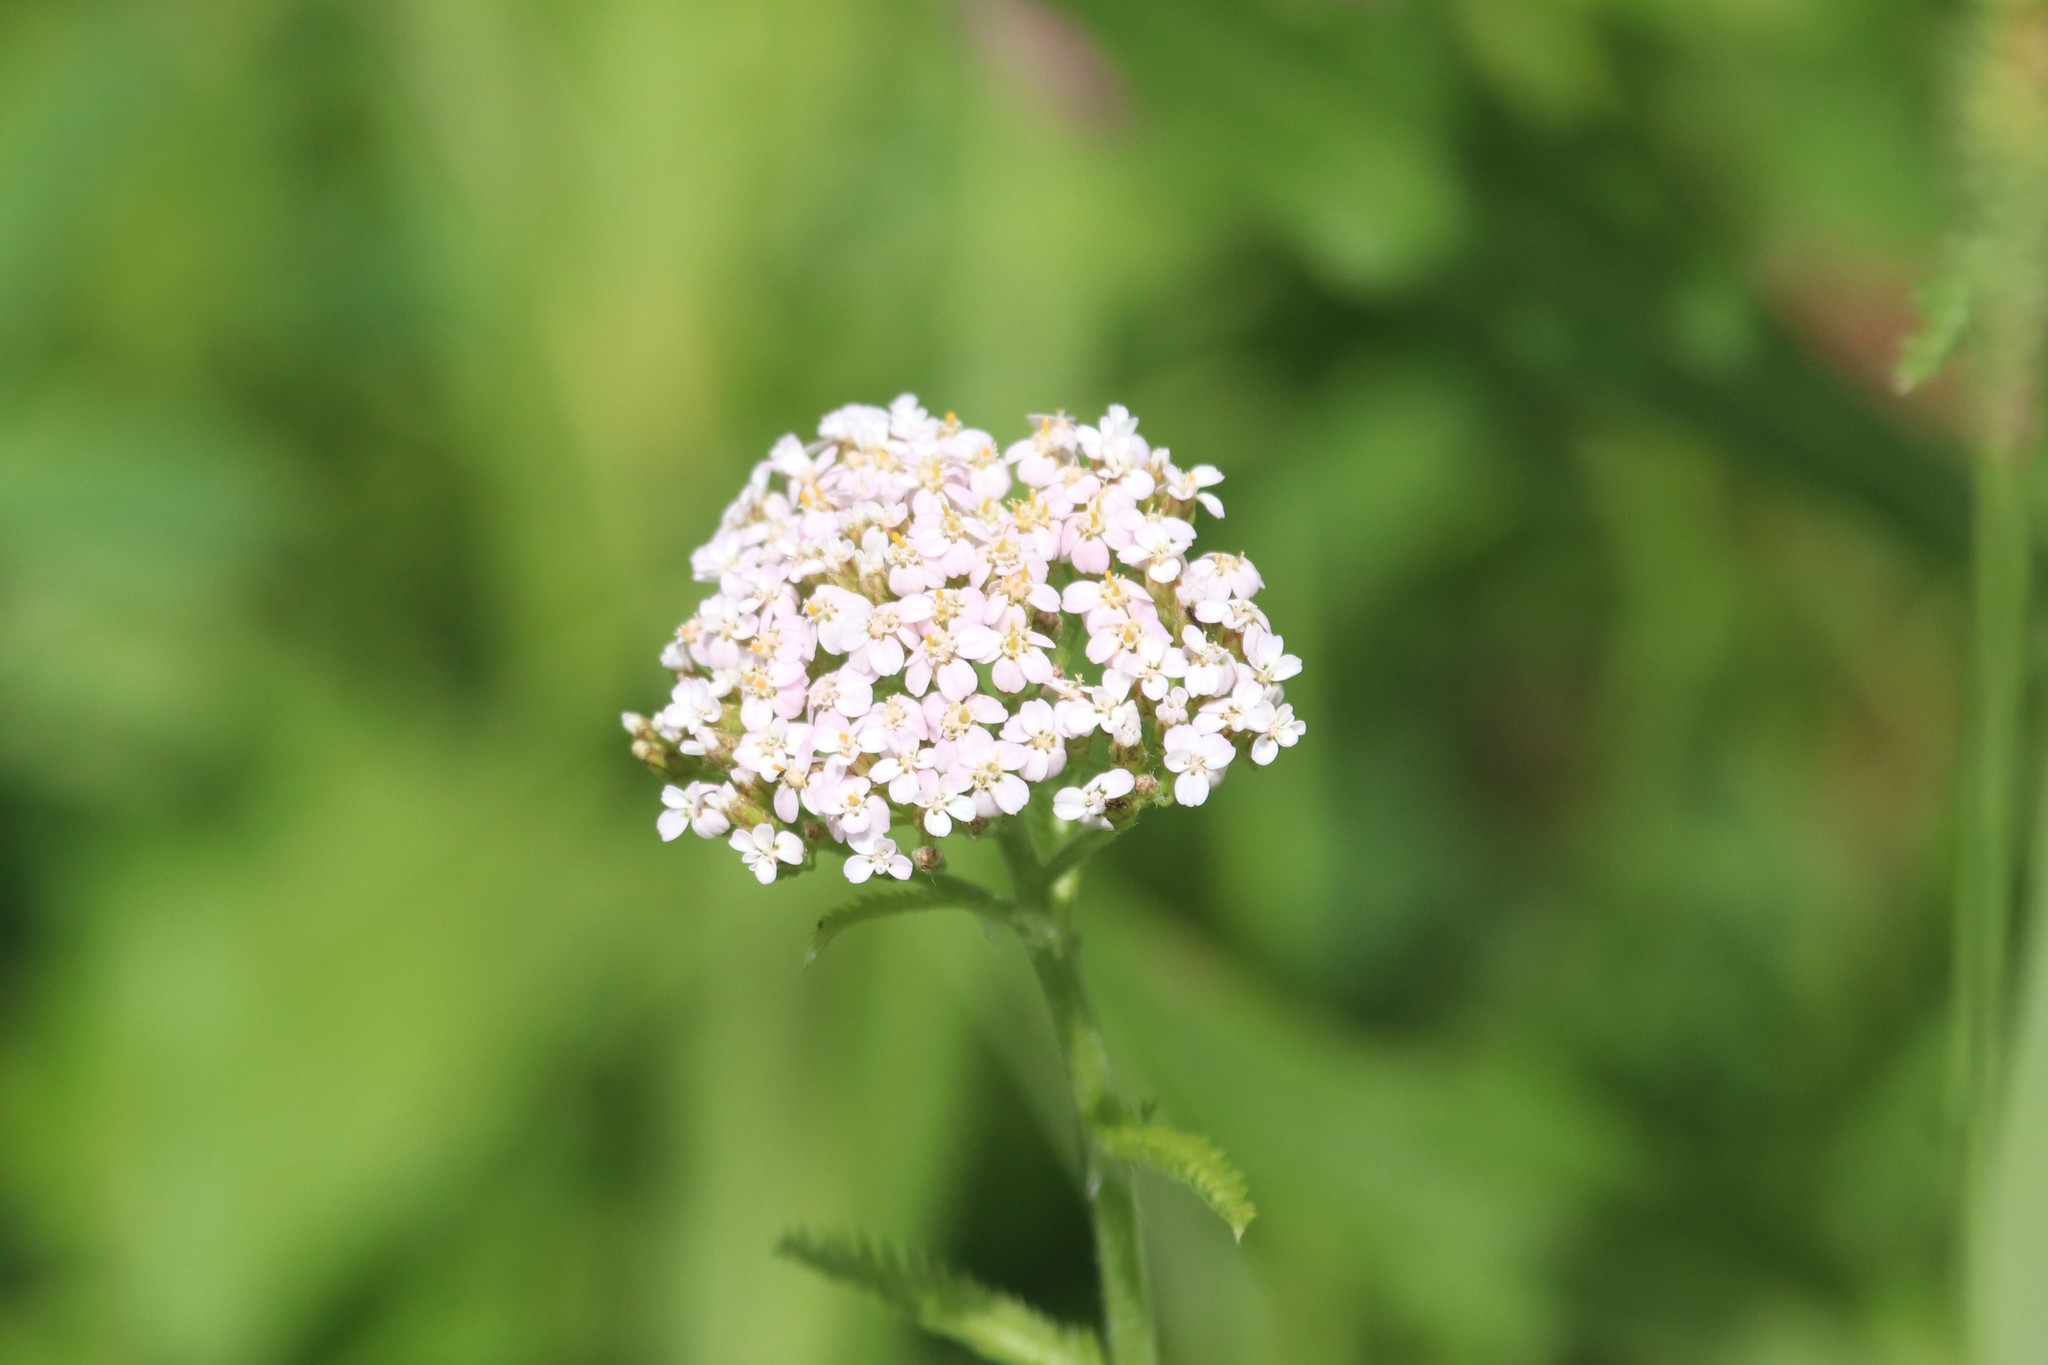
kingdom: Plantae
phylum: Tracheophyta
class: Magnoliopsida
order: Asterales
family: Asteraceae
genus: Achillea
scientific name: Achillea millefolium
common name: Yarrow
